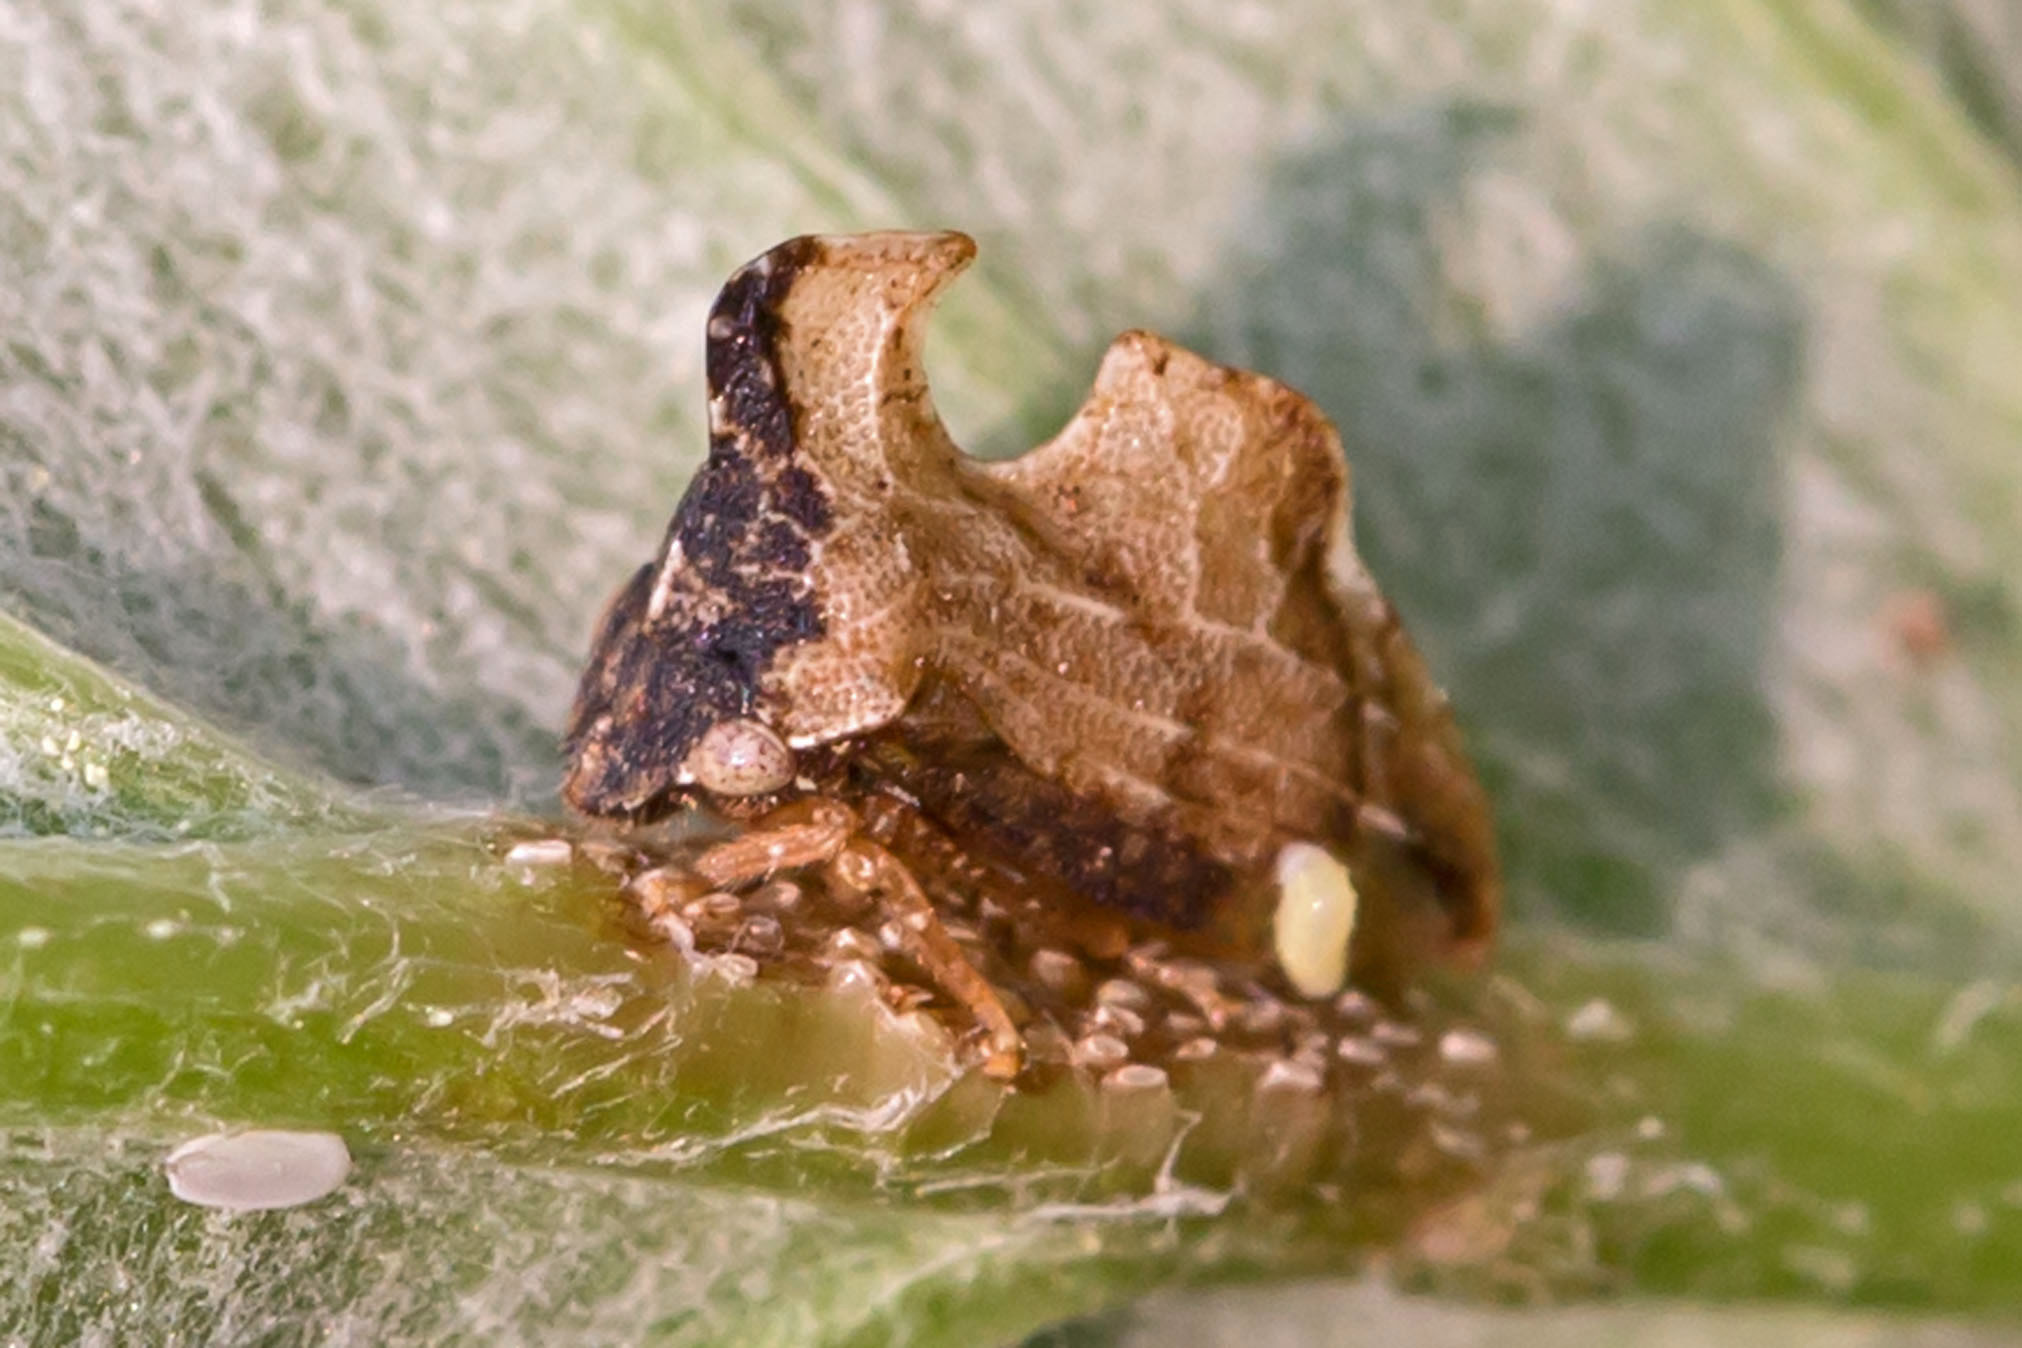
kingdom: Animalia
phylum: Arthropoda
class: Insecta
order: Hemiptera
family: Membracidae
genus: Entylia
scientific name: Entylia carinata
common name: Keeled treehopper
